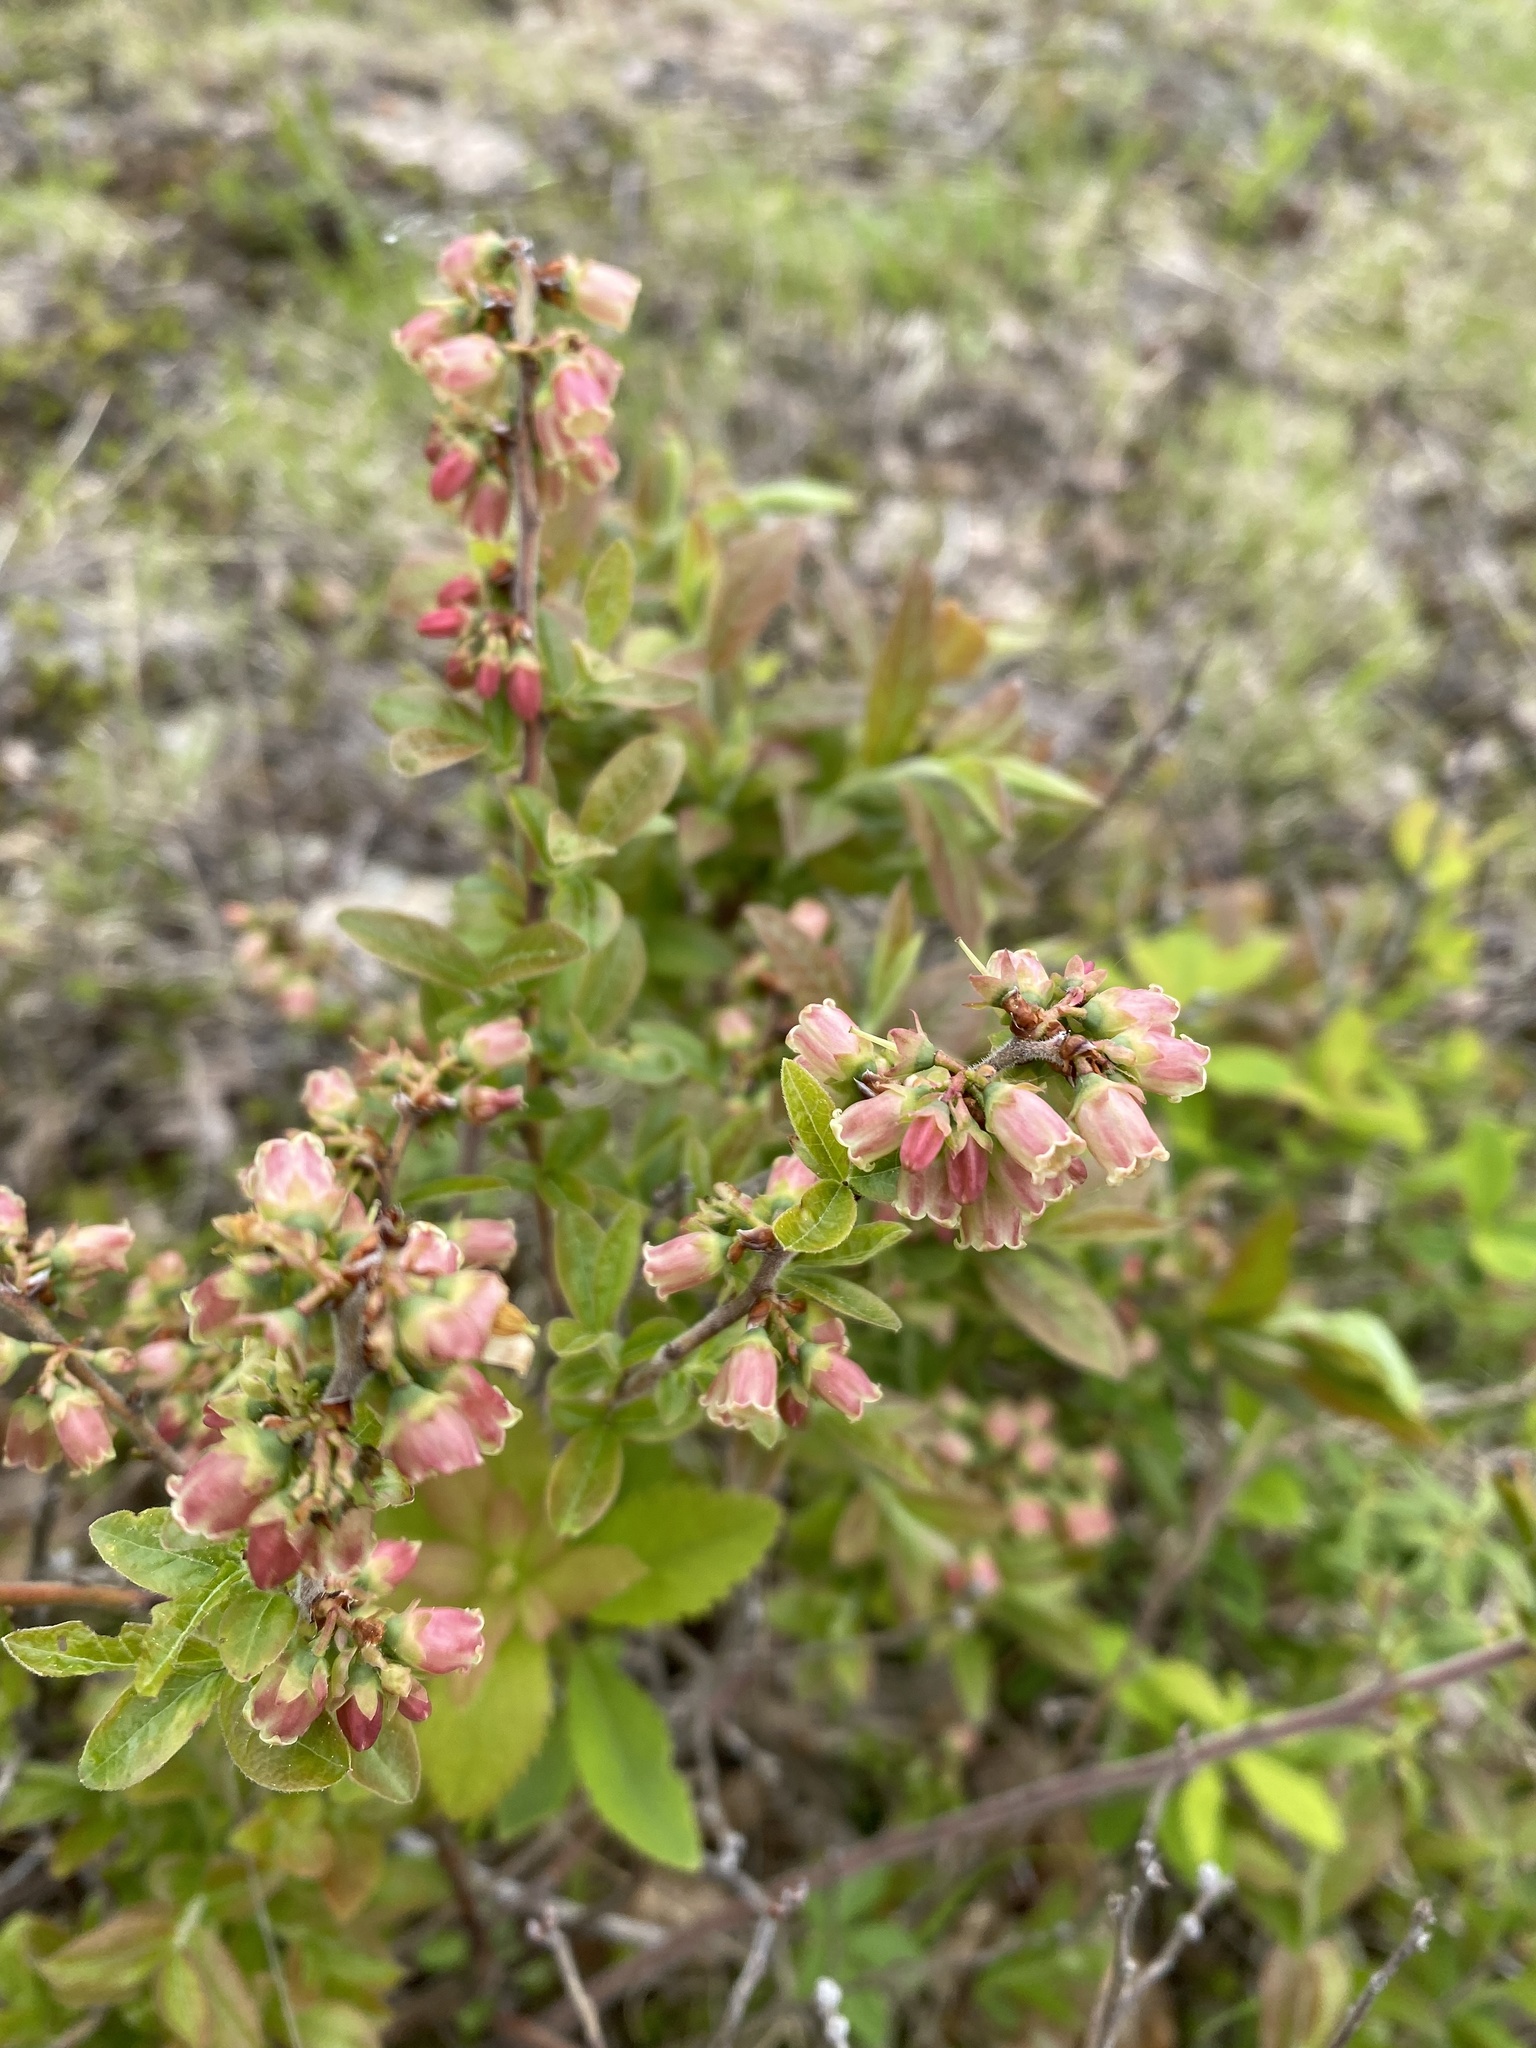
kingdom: Plantae
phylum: Tracheophyta
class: Magnoliopsida
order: Ericales
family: Ericaceae
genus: Vaccinium
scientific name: Vaccinium myrtilloides
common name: Canada blueberry
